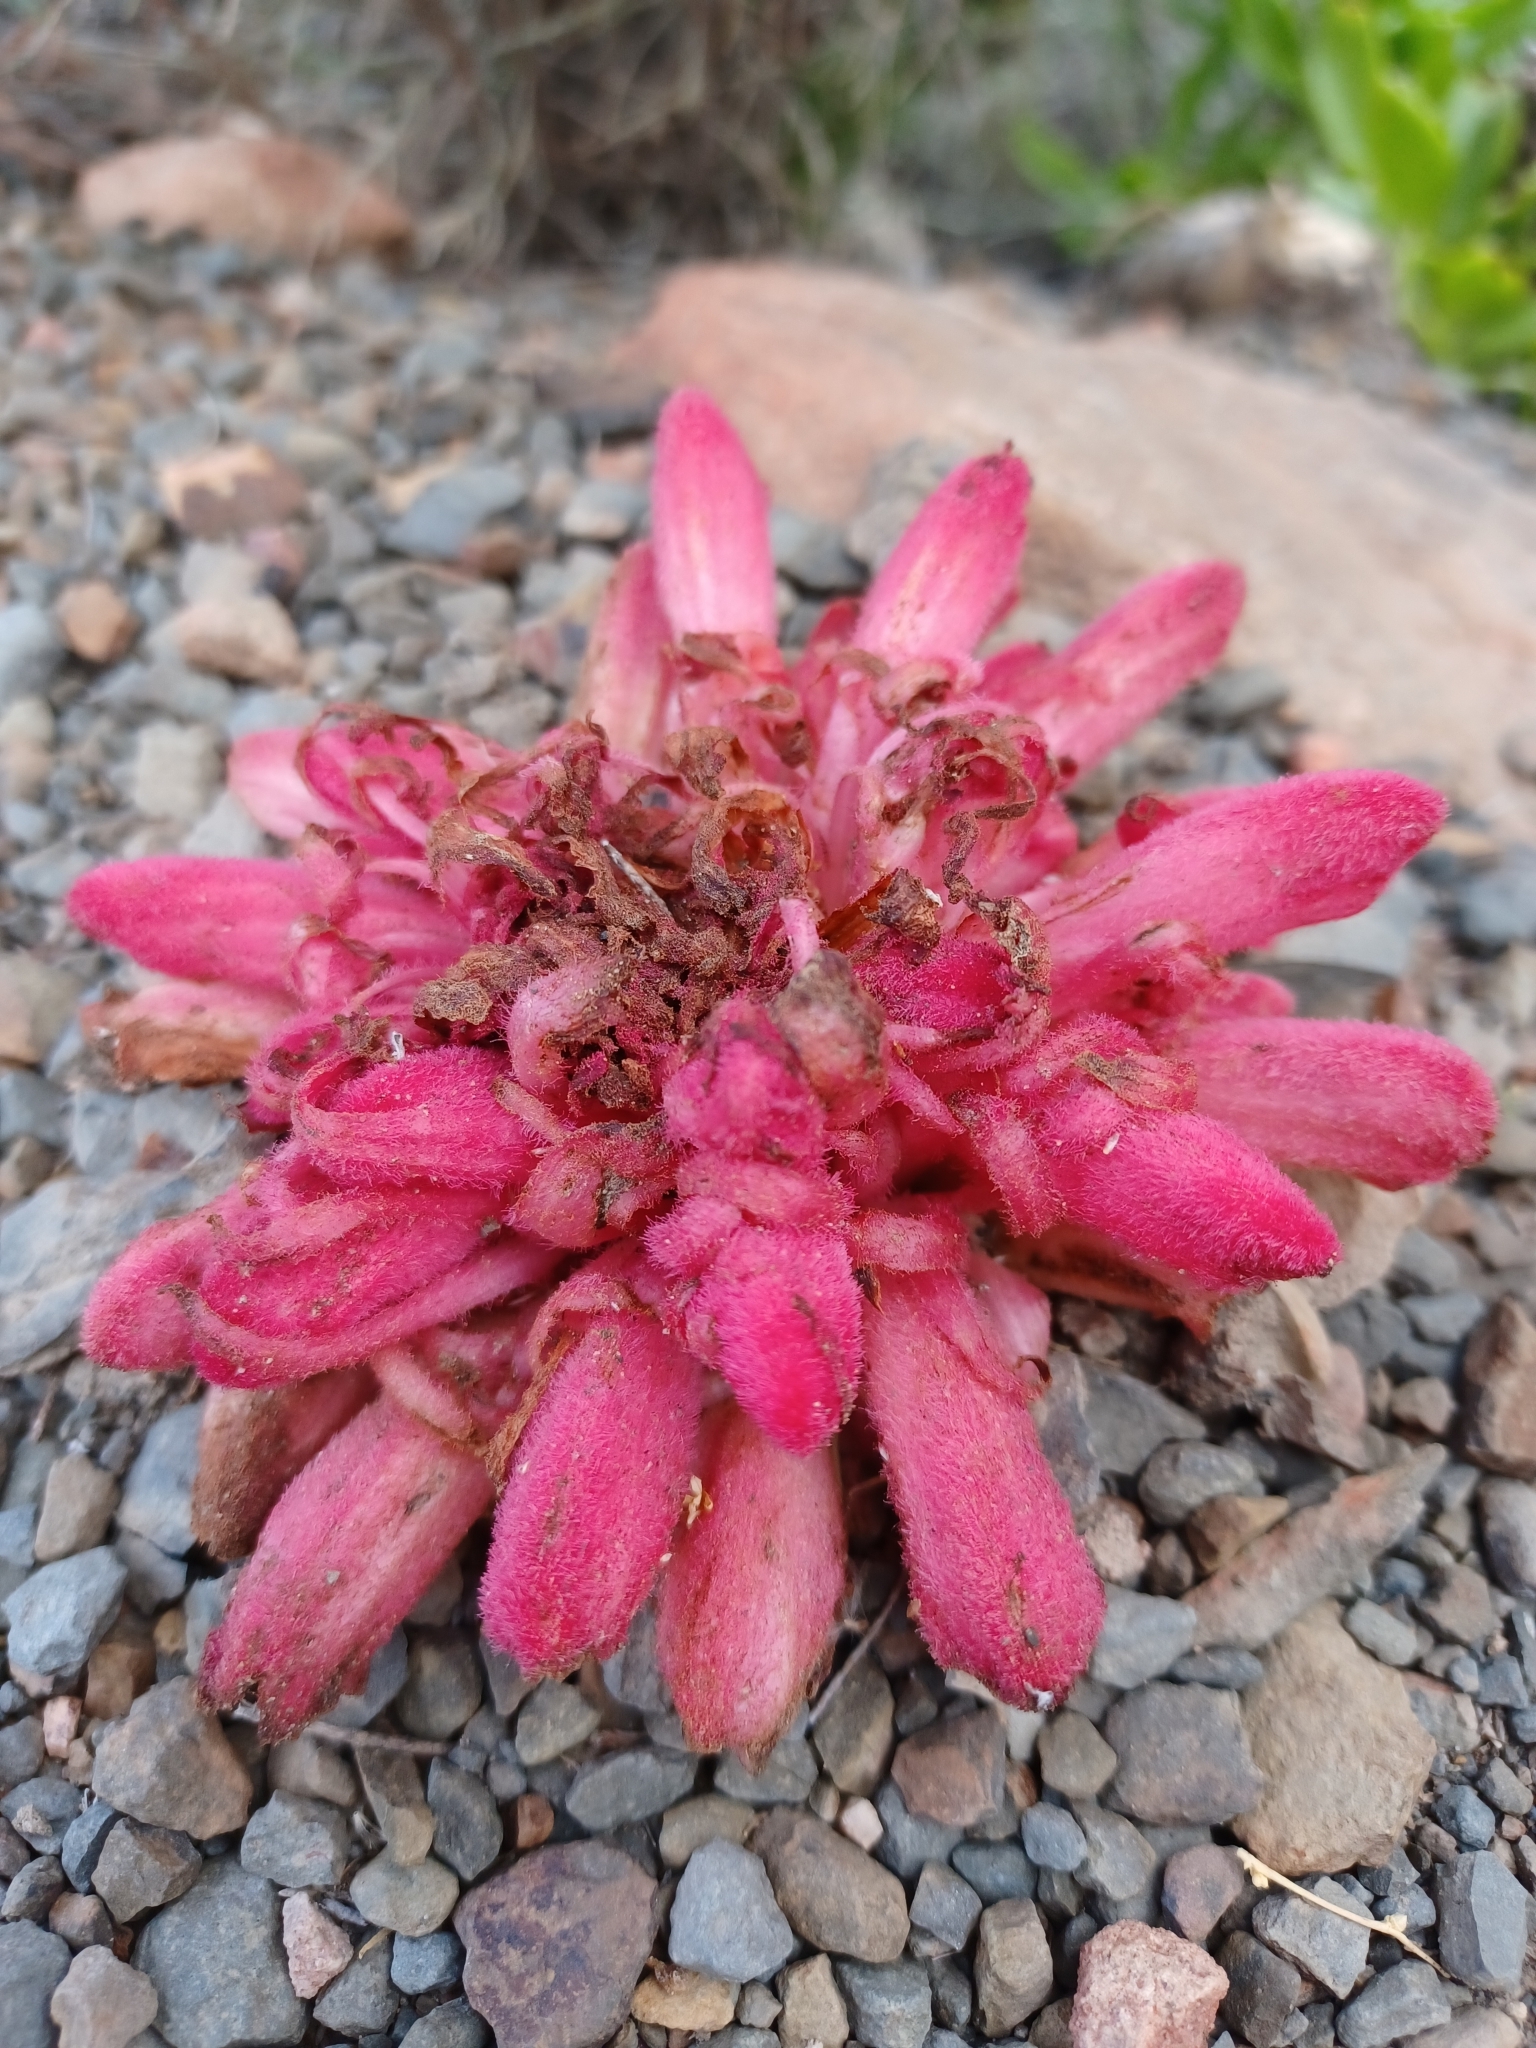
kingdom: Plantae
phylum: Tracheophyta
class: Magnoliopsida
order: Lamiales
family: Orobanchaceae
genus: Hyobanche
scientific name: Hyobanche sanguinea
